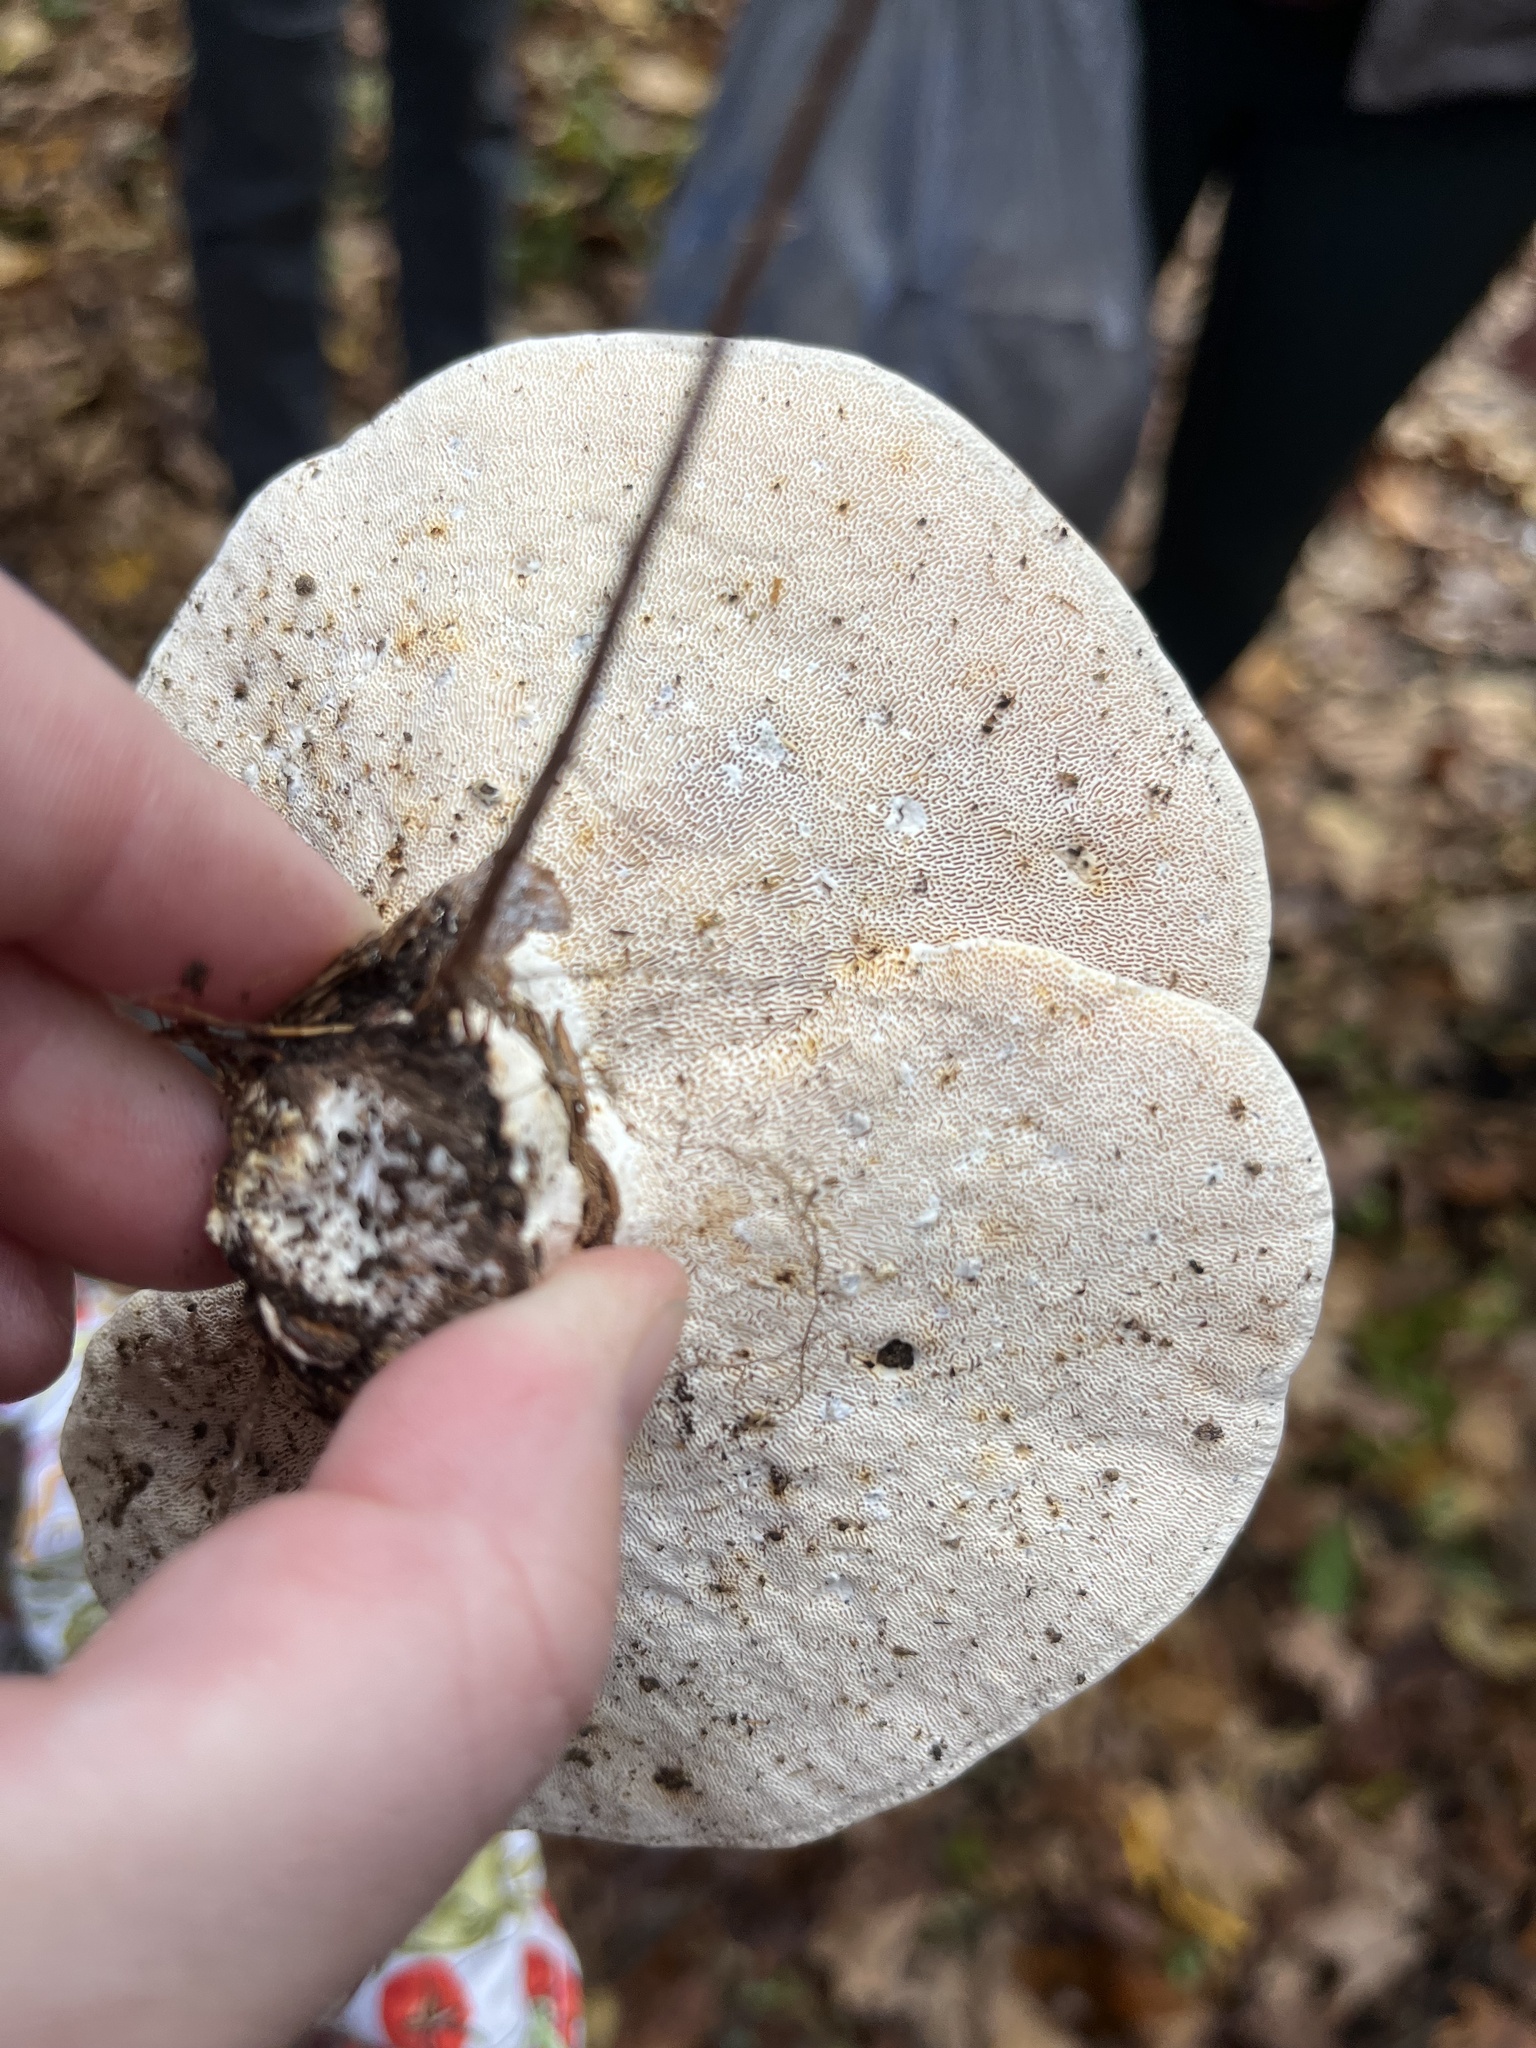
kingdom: Fungi
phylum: Basidiomycota
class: Agaricomycetes
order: Polyporales
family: Polyporaceae
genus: Trametes
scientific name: Trametes
